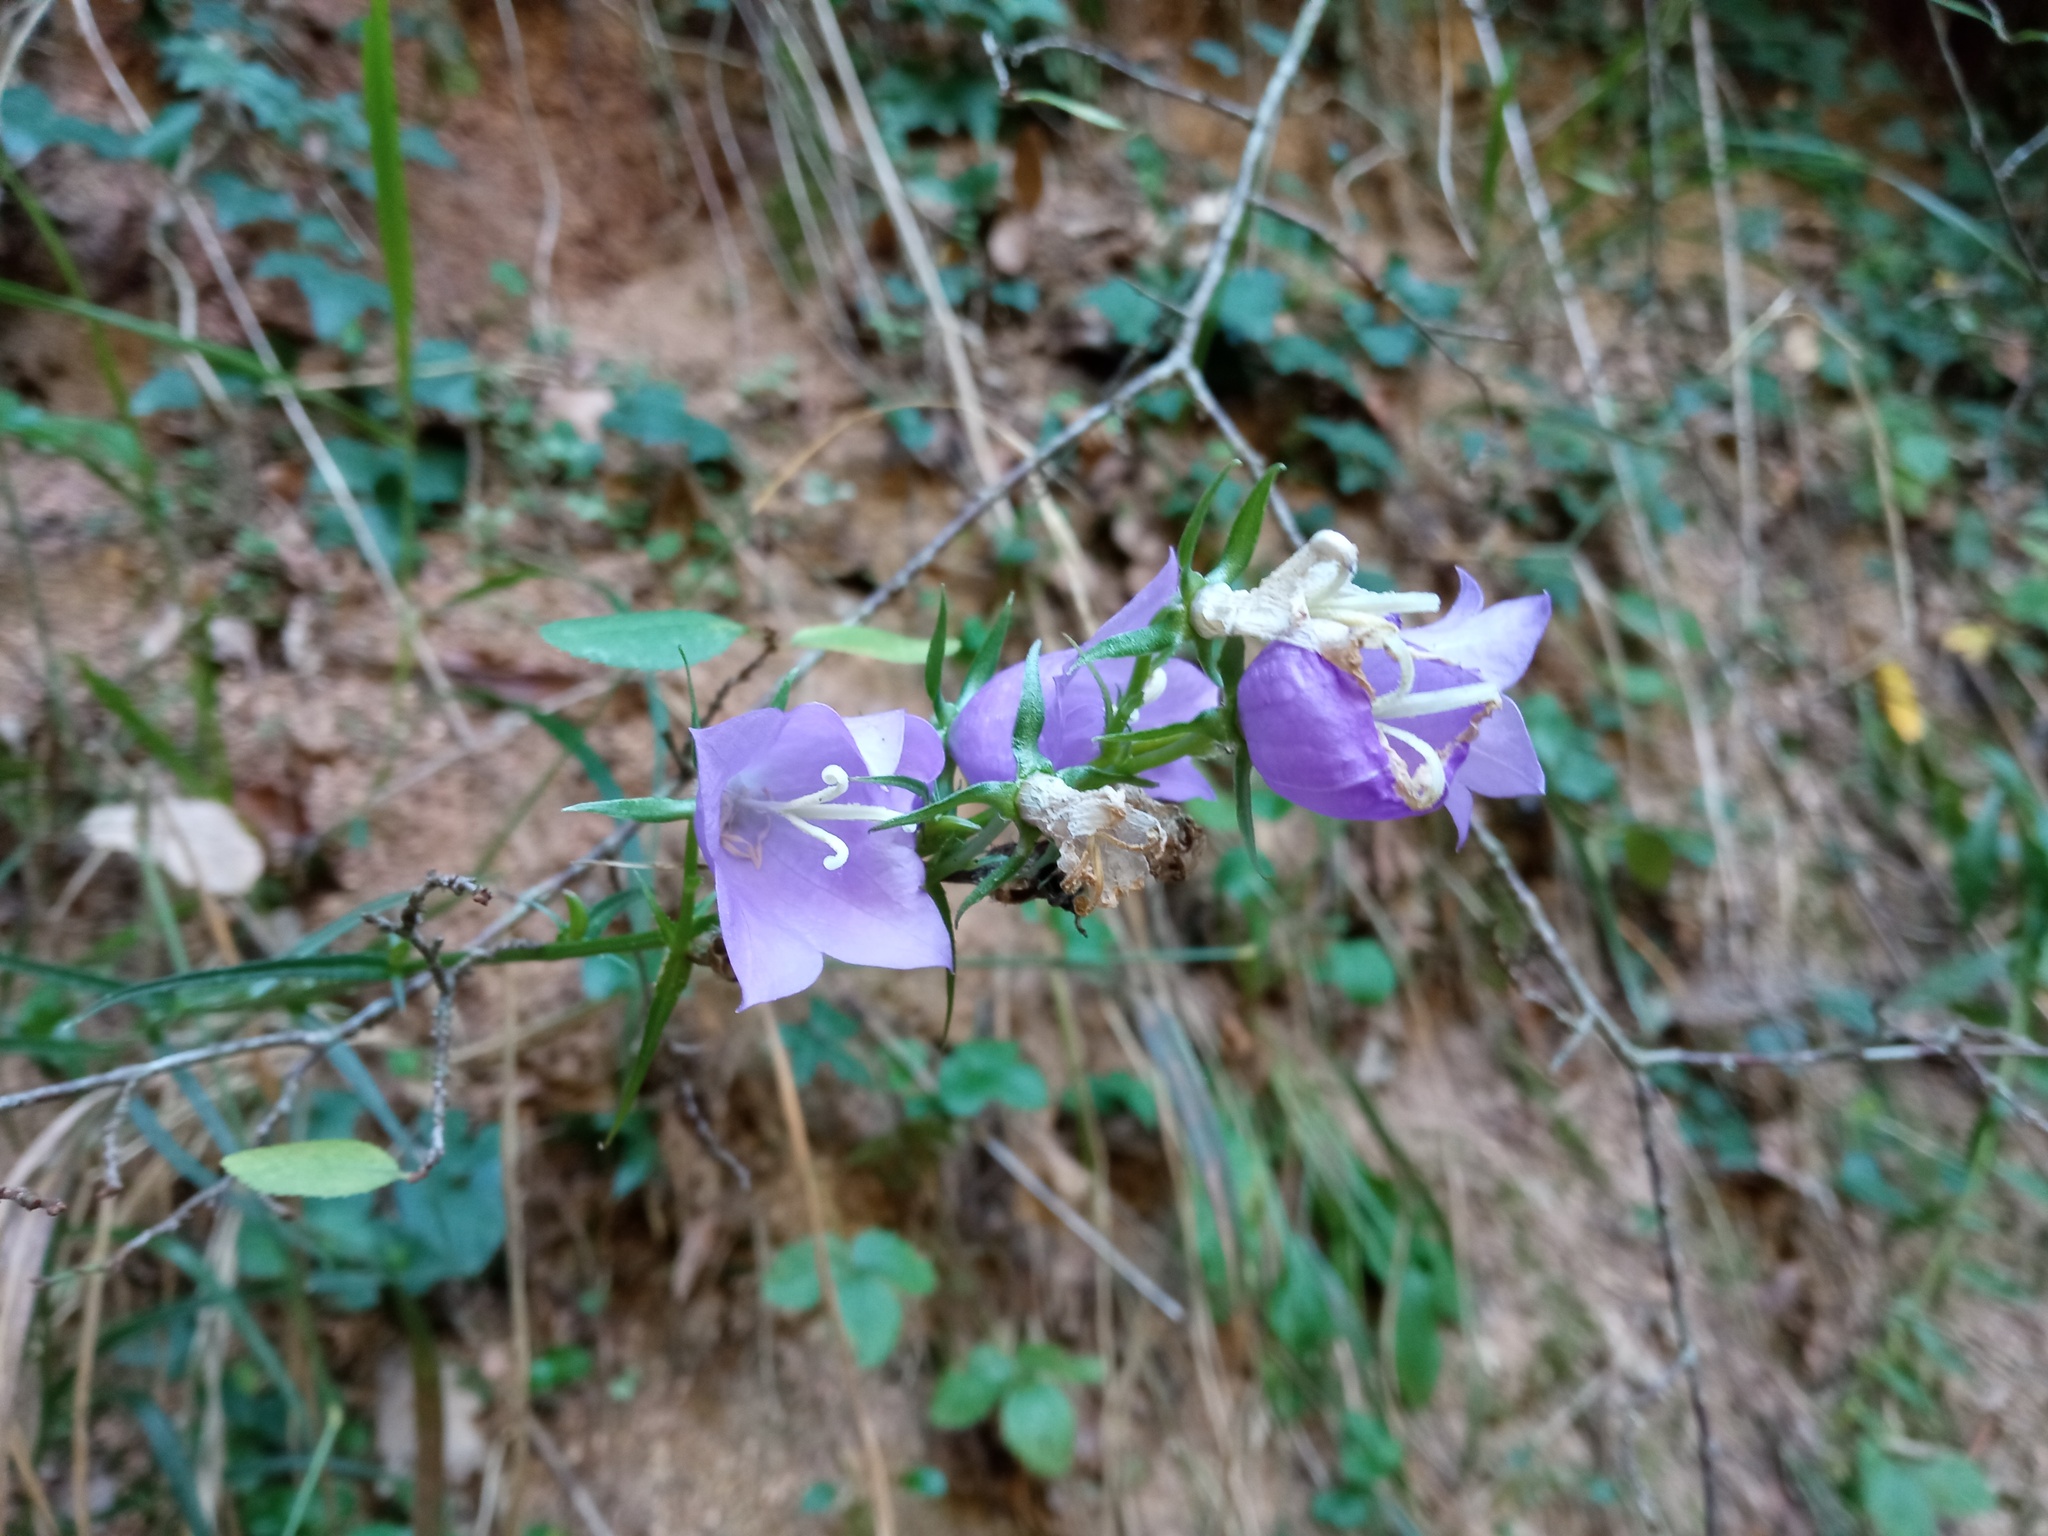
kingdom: Plantae
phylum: Tracheophyta
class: Magnoliopsida
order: Asterales
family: Campanulaceae
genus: Campanula
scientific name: Campanula persicifolia
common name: Peach-leaved bellflower
